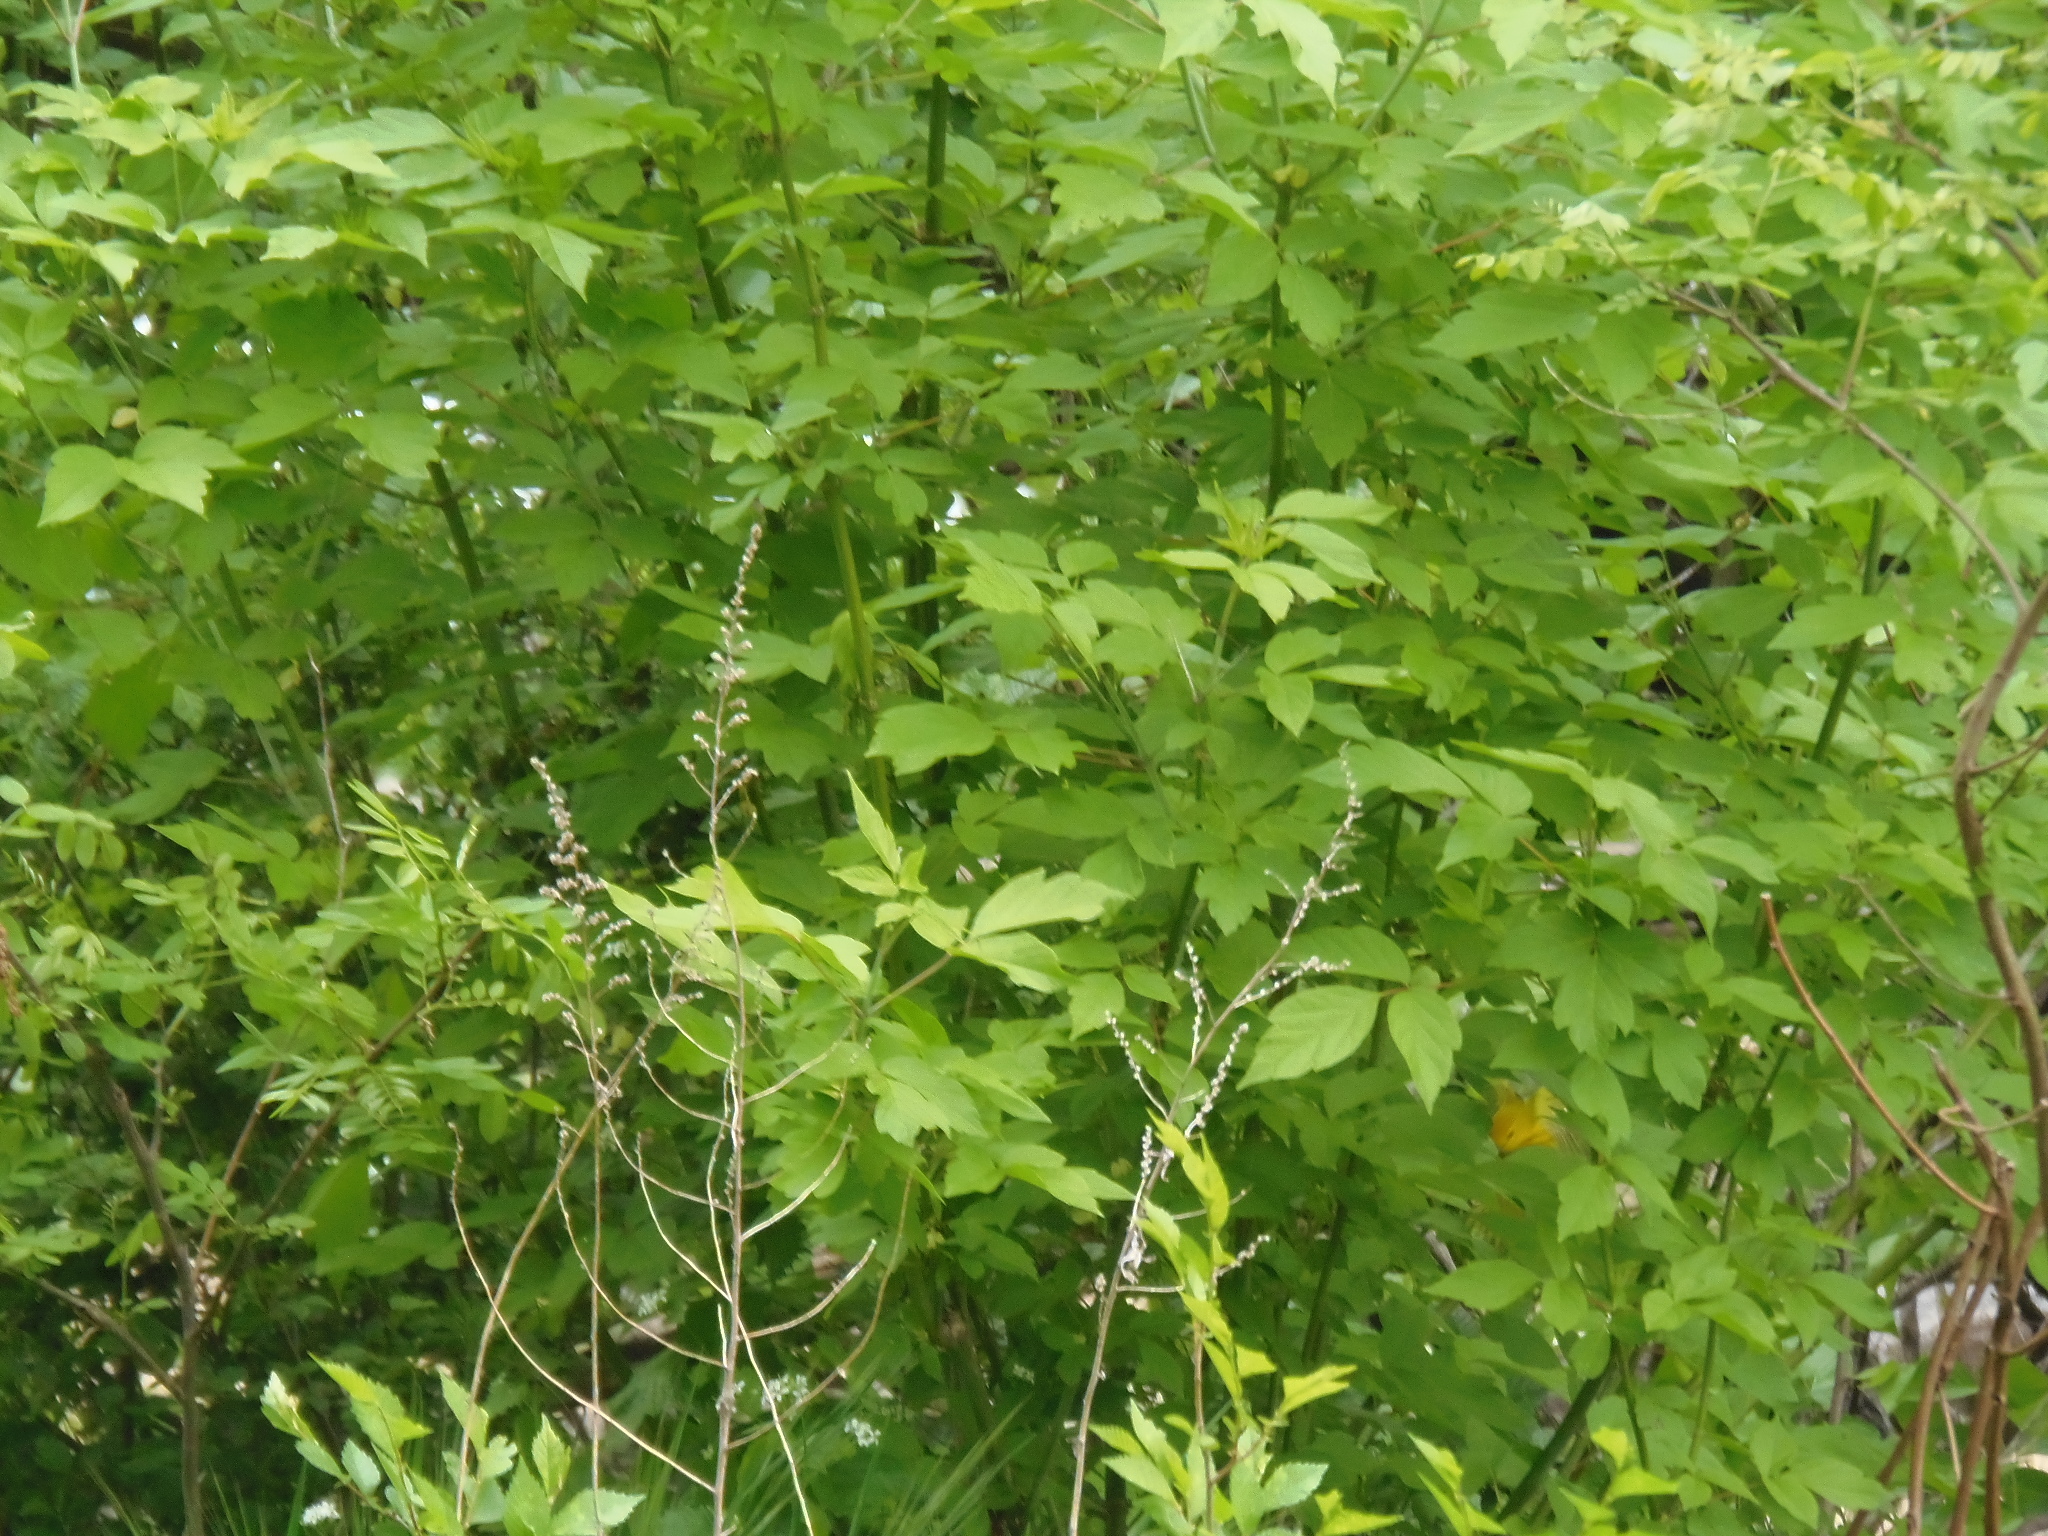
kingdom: Plantae
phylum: Tracheophyta
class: Magnoliopsida
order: Sapindales
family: Sapindaceae
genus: Acer
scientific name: Acer negundo
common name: Ashleaf maple
